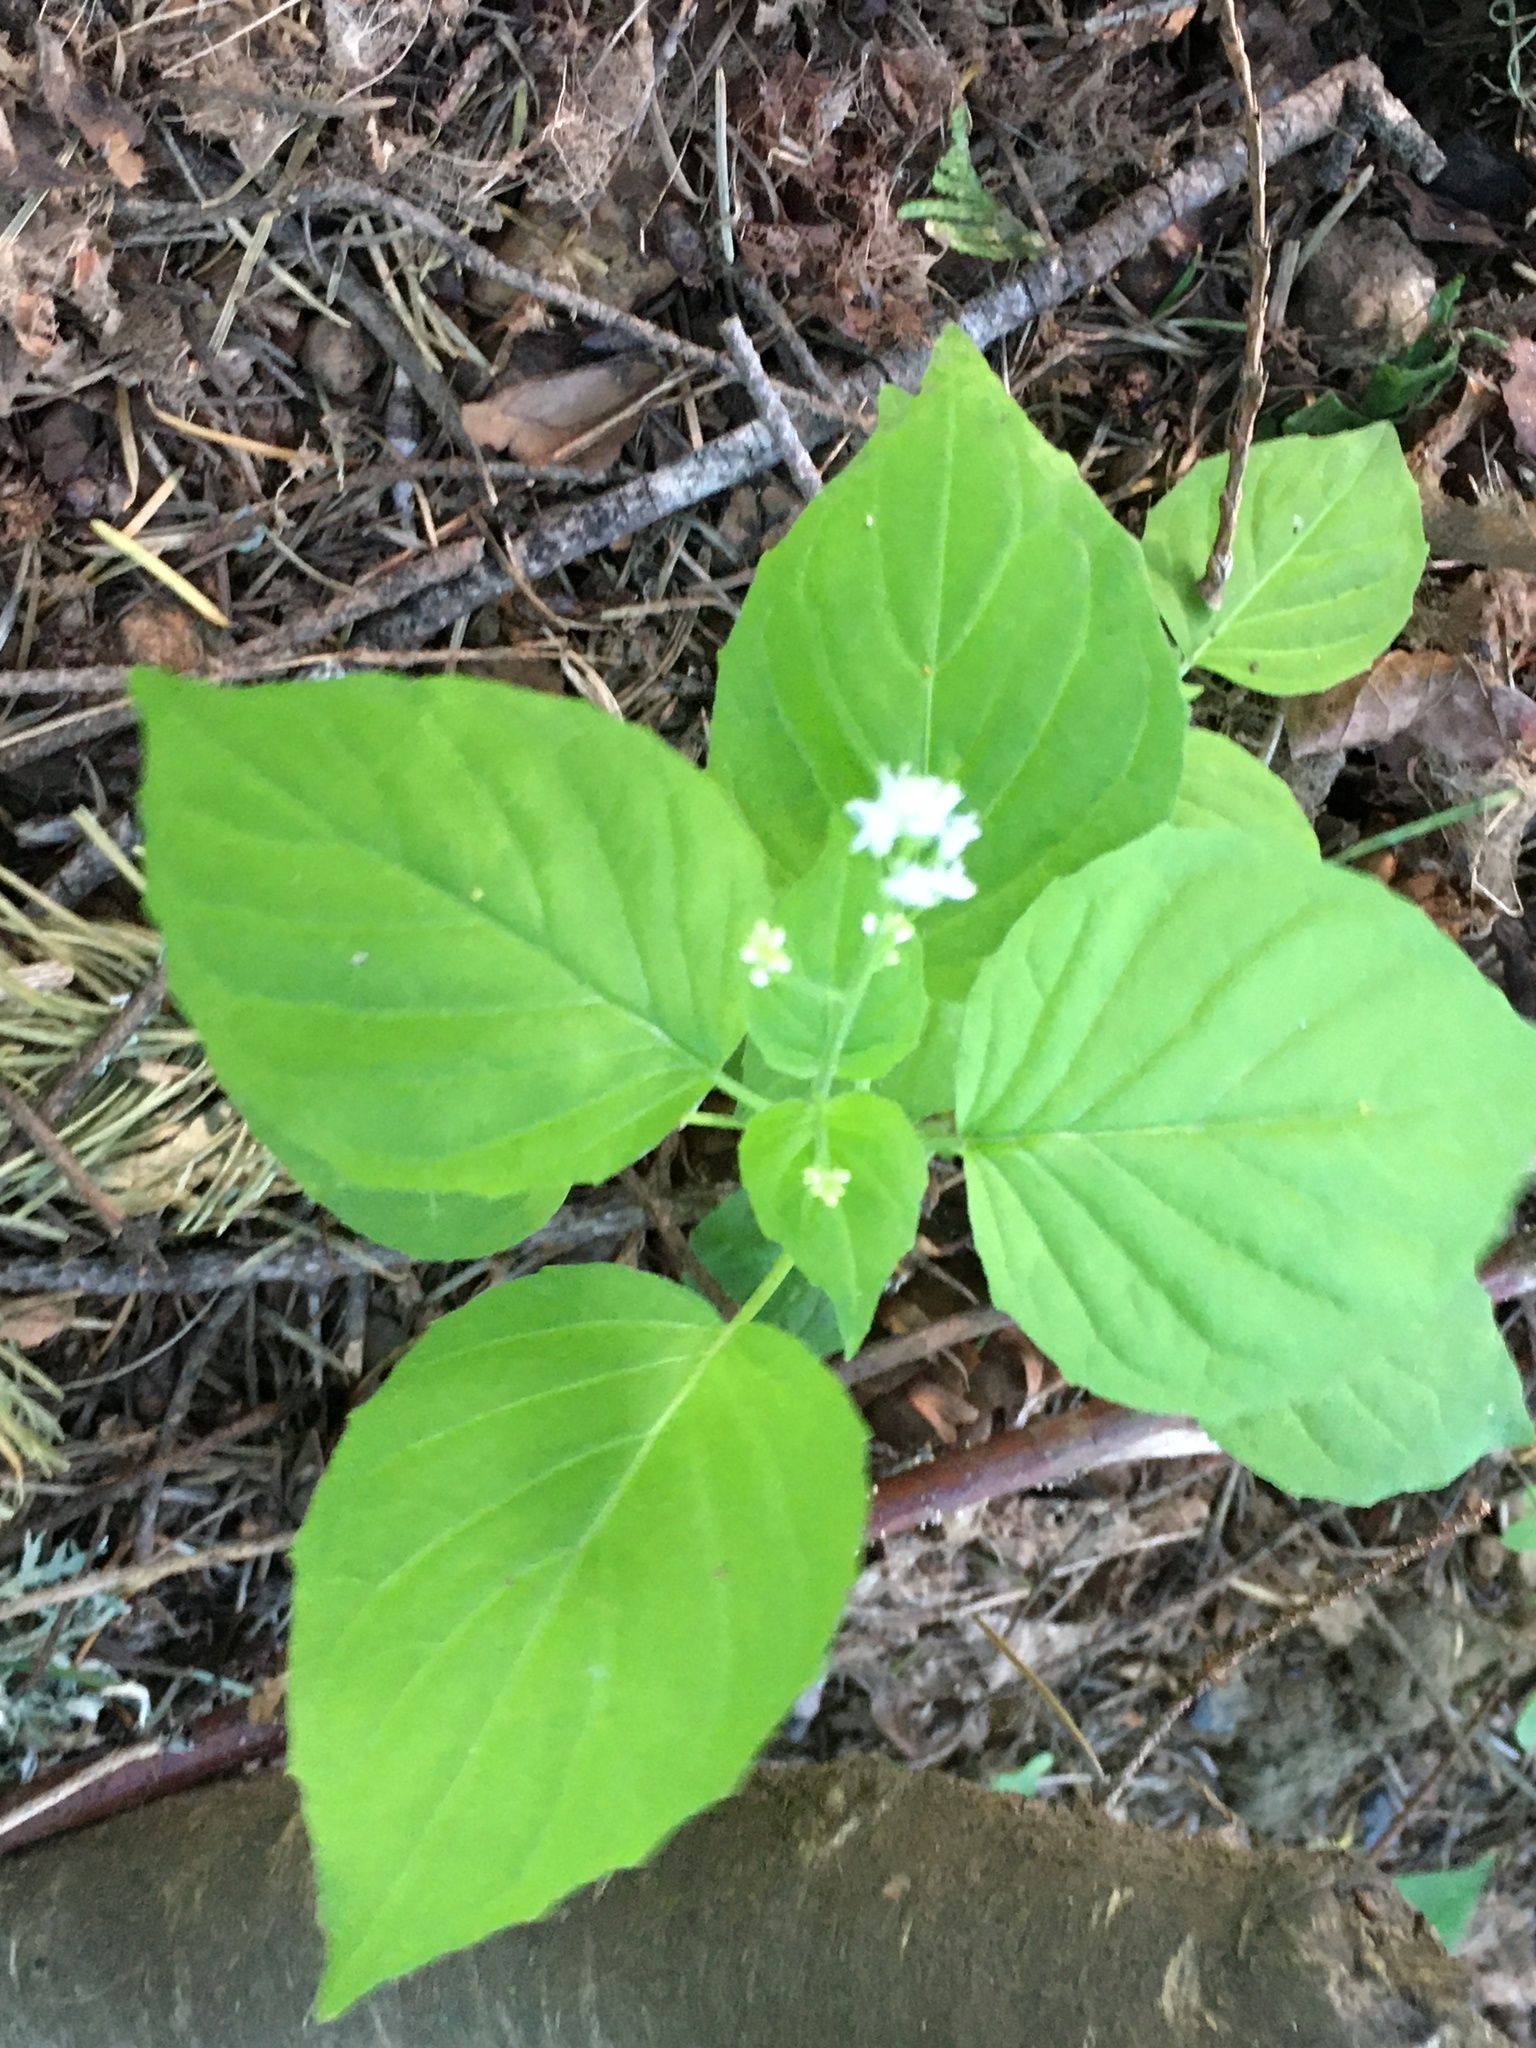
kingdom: Plantae
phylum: Tracheophyta
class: Magnoliopsida
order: Myrtales
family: Onagraceae
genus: Circaea
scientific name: Circaea alpina
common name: Alpine enchanter's-nightshade
